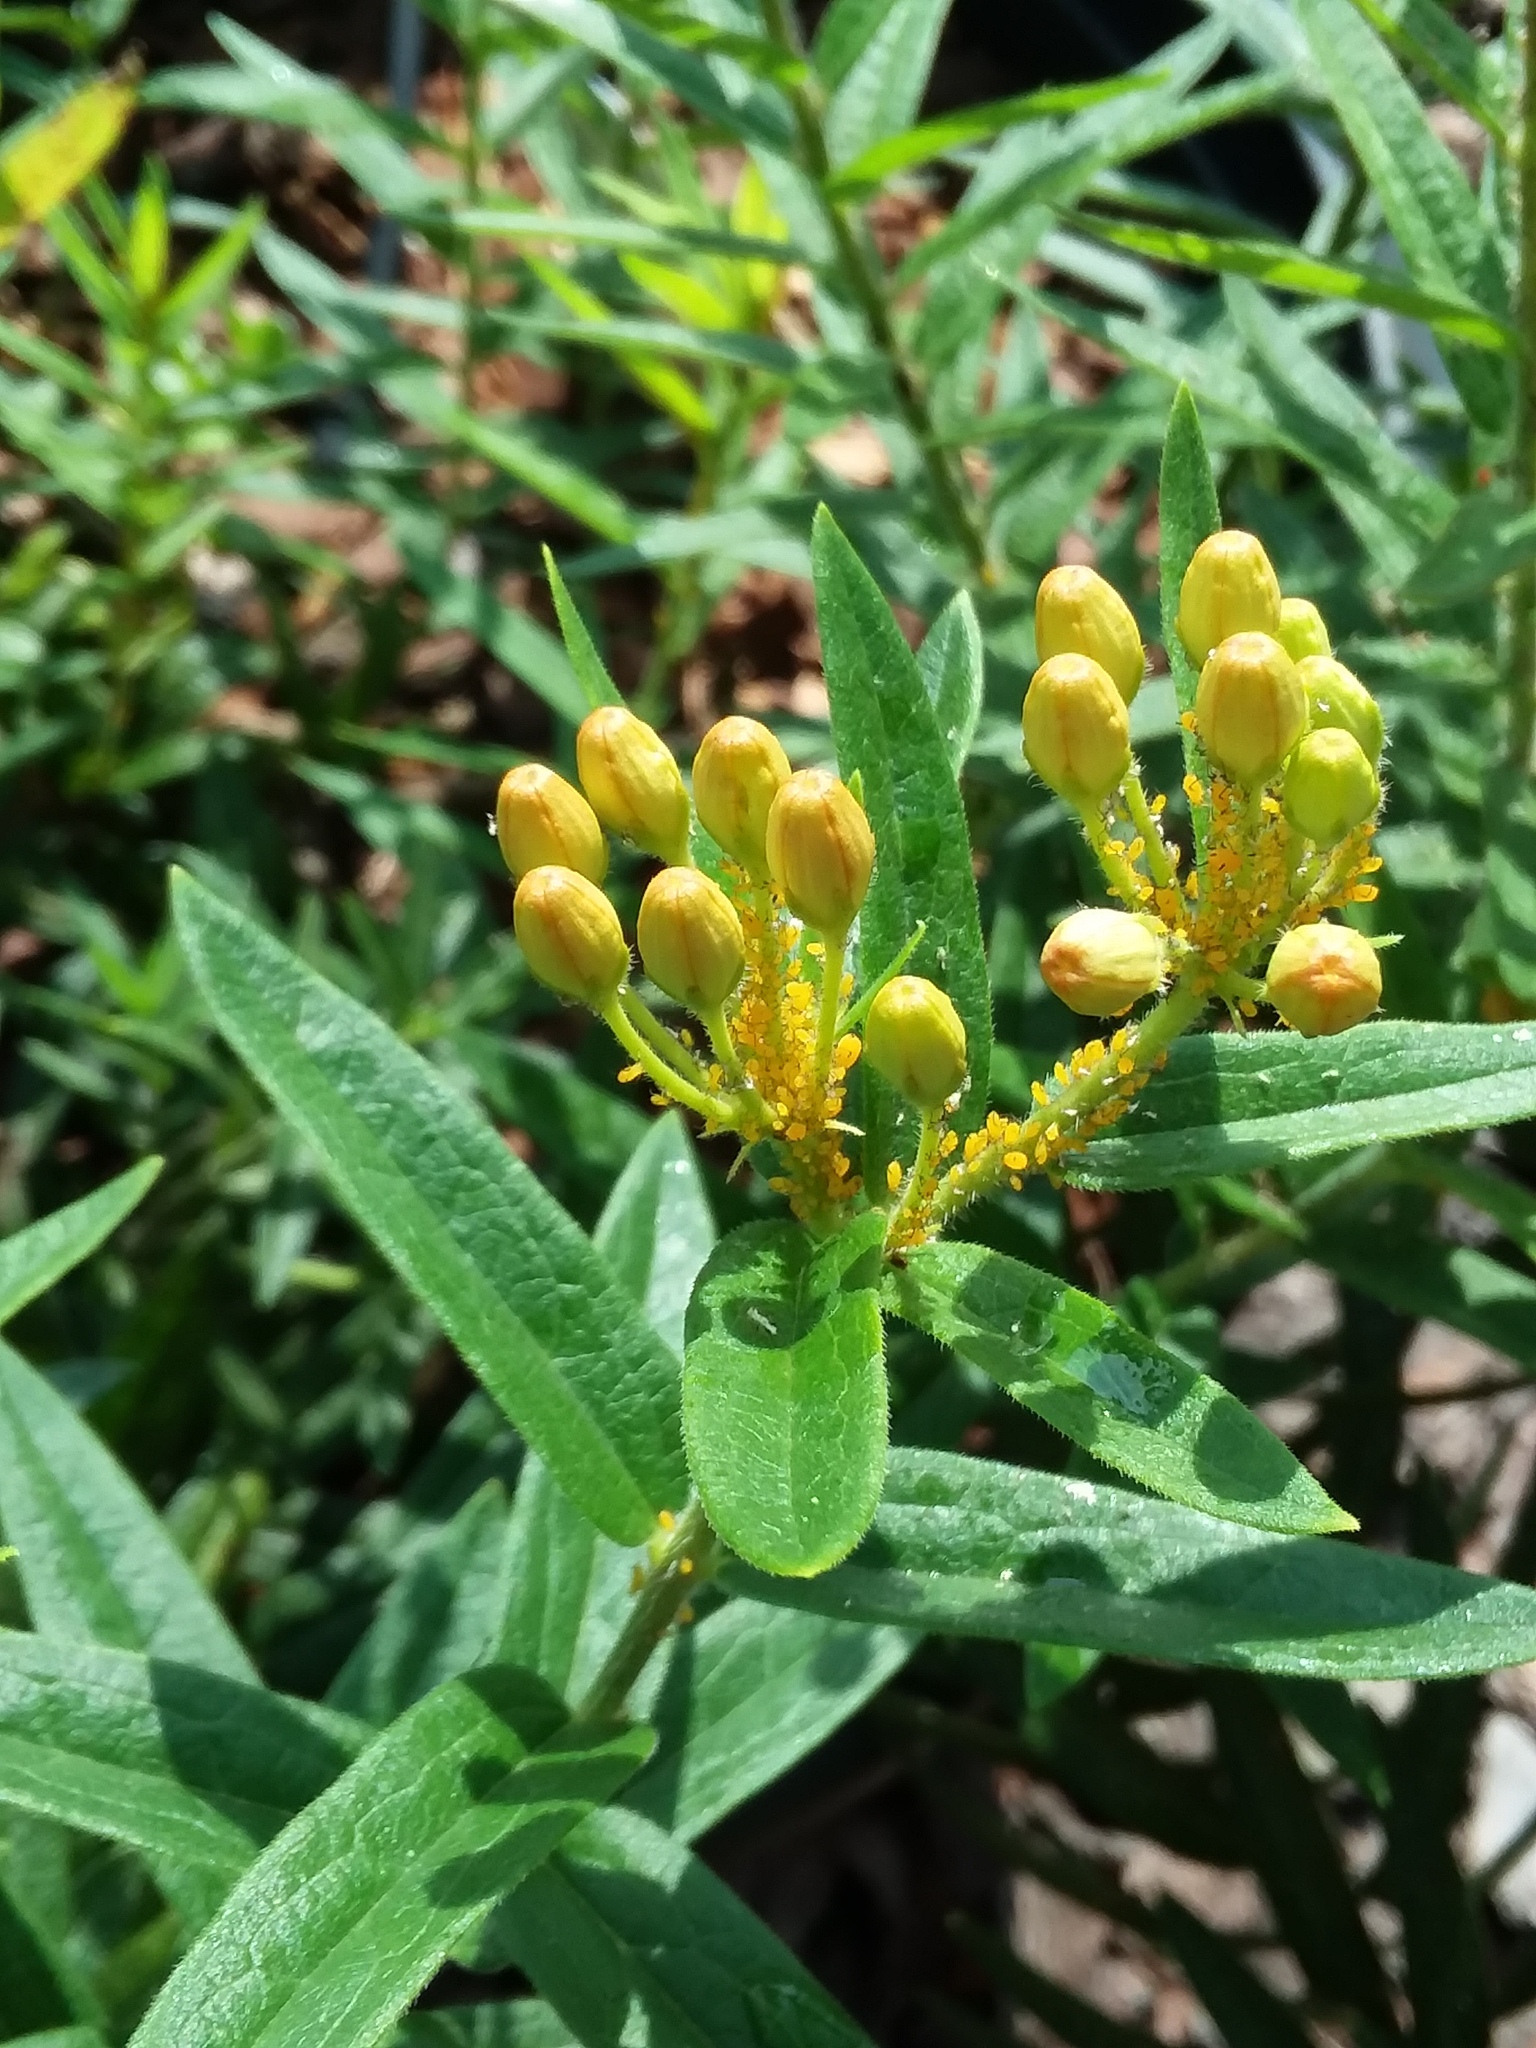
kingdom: Animalia
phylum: Arthropoda
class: Insecta
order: Hemiptera
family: Aphididae
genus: Aphis
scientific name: Aphis nerii
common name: Oleander aphid
